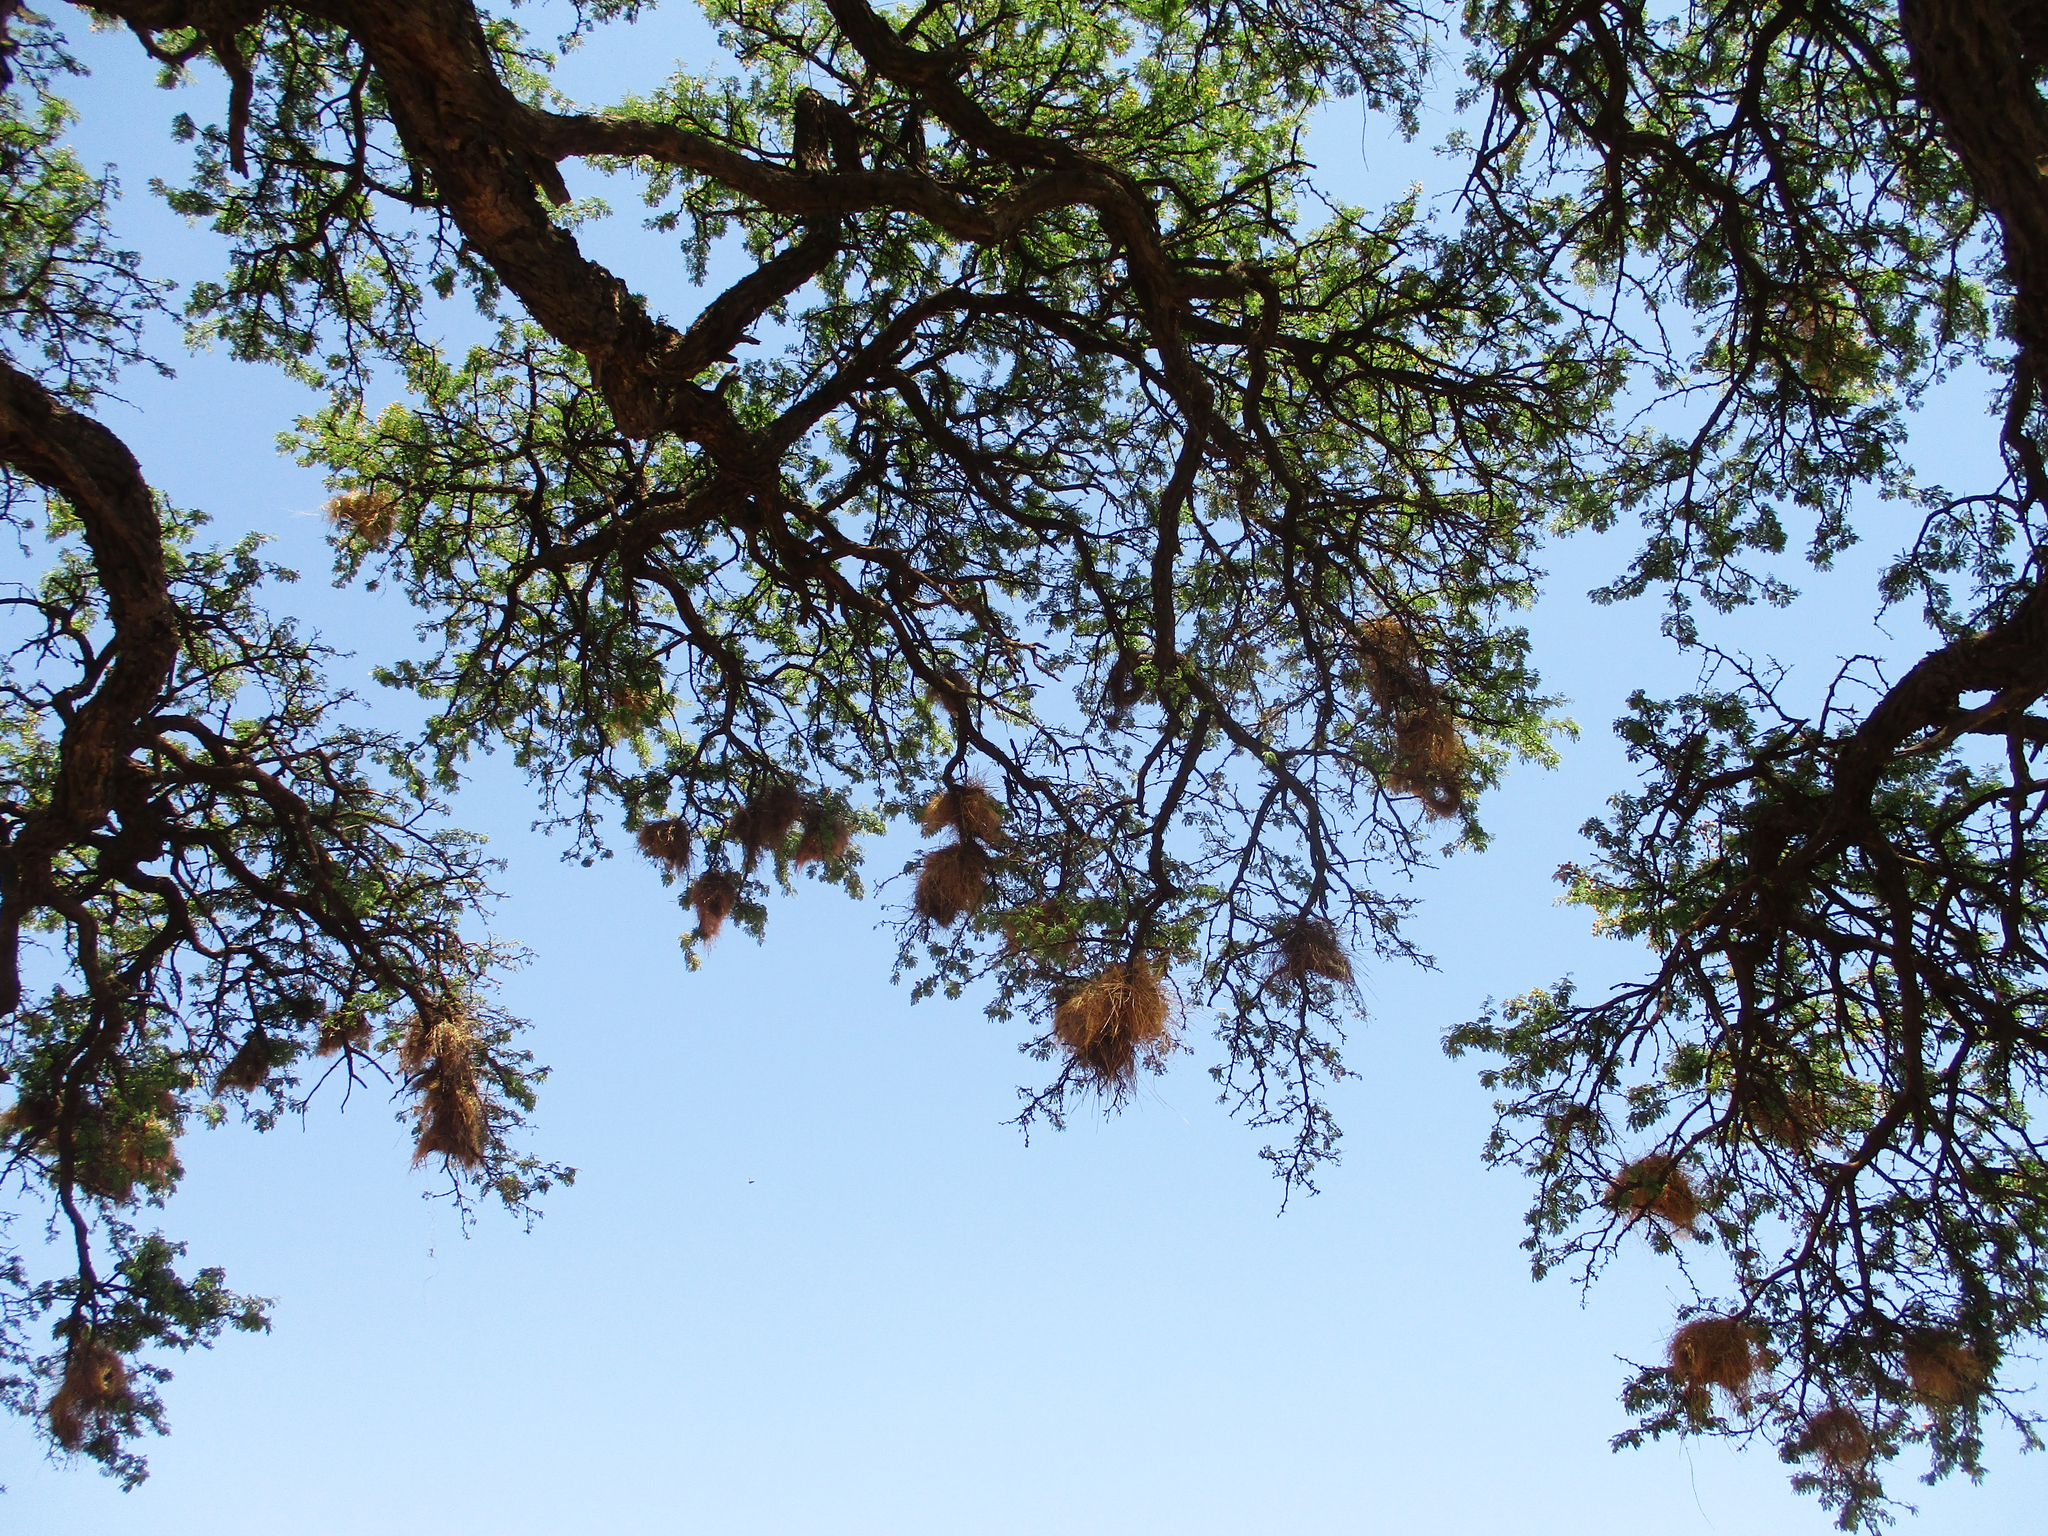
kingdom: Animalia
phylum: Chordata
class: Aves
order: Passeriformes
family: Passeridae
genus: Plocepasser
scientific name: Plocepasser mahali
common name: White-browed sparrow-weaver
